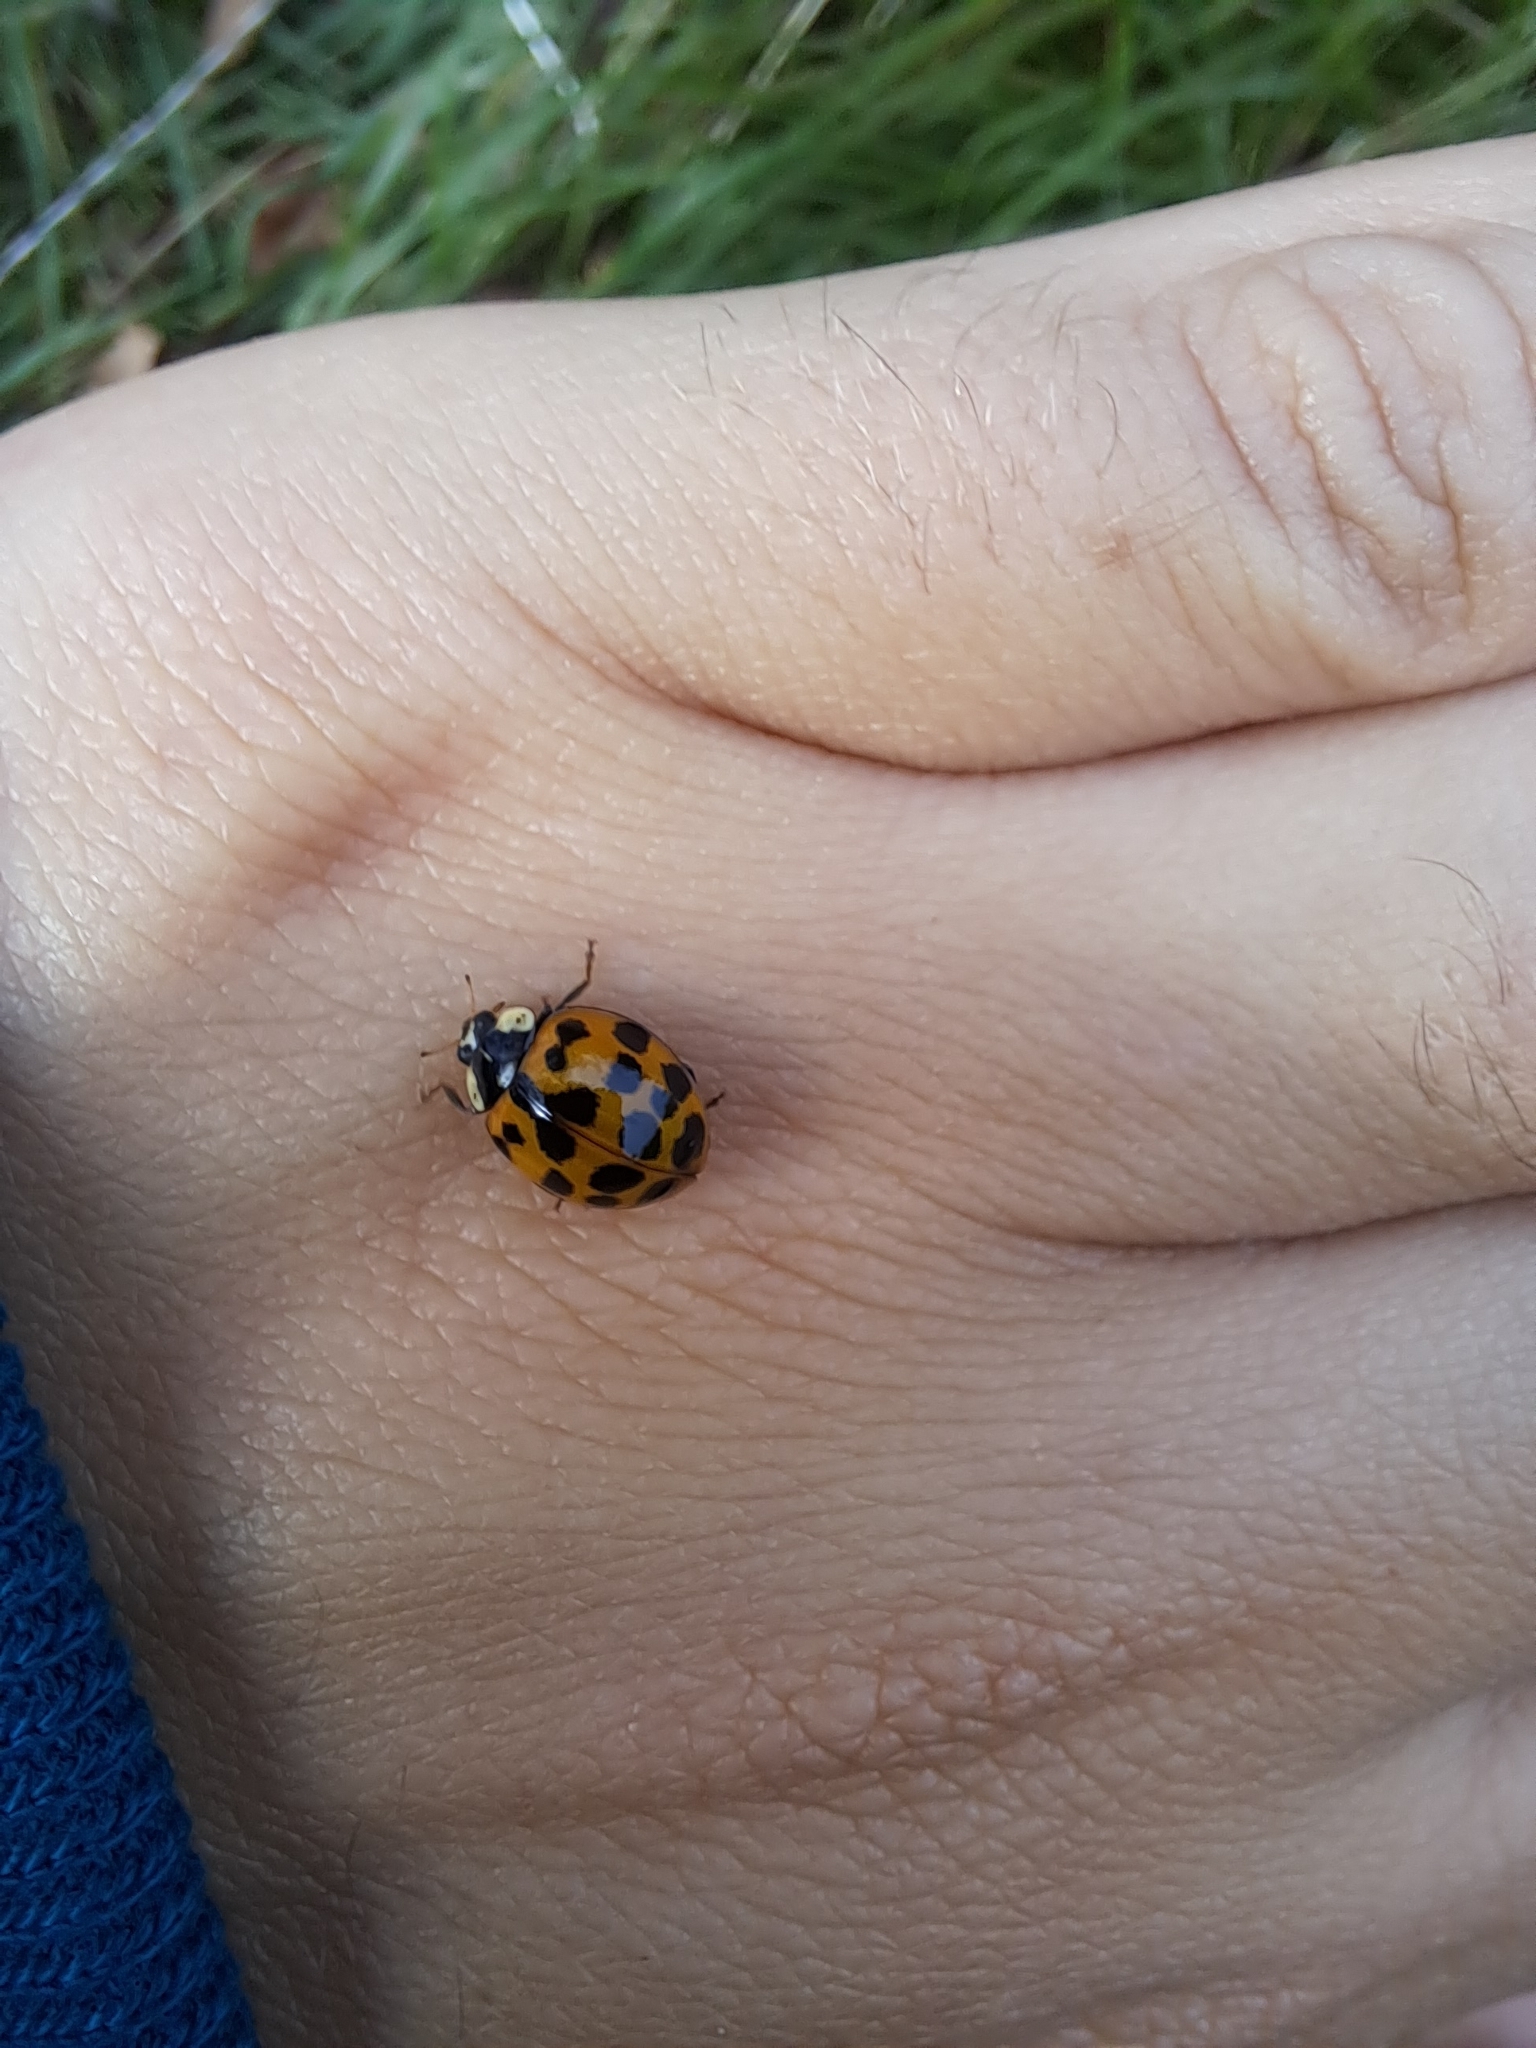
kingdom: Animalia
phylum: Arthropoda
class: Insecta
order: Coleoptera
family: Coccinellidae
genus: Harmonia
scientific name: Harmonia axyridis
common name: Harlequin ladybird
